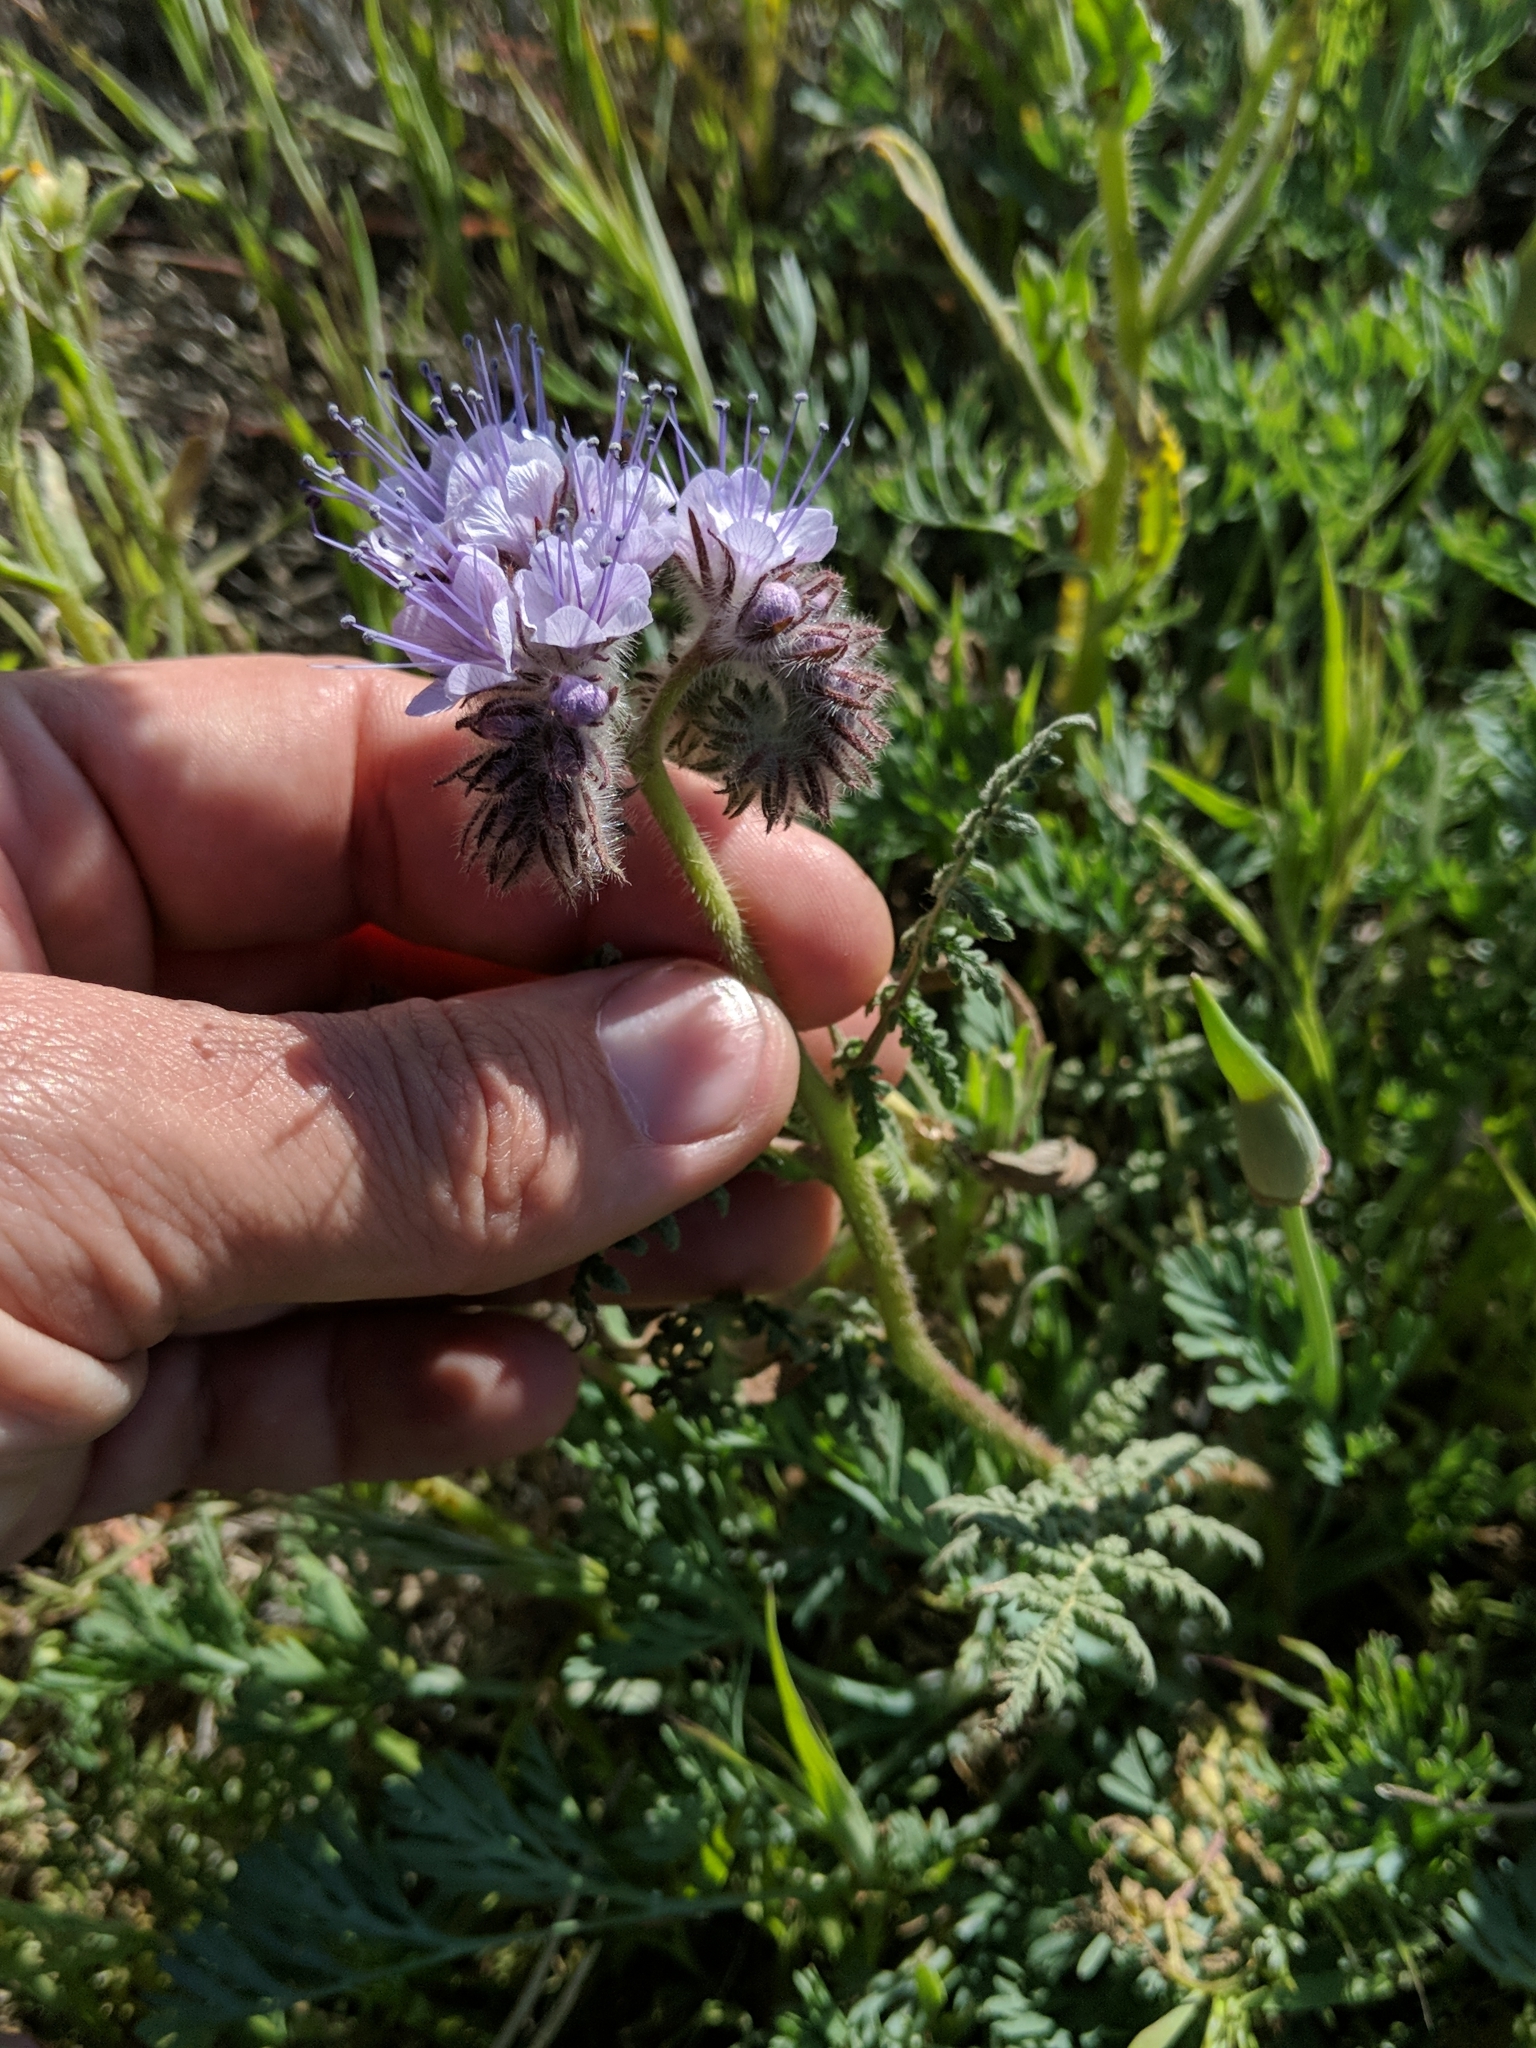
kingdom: Plantae
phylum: Tracheophyta
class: Magnoliopsida
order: Boraginales
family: Hydrophyllaceae
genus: Phacelia
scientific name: Phacelia tanacetifolia
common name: Phacelia
